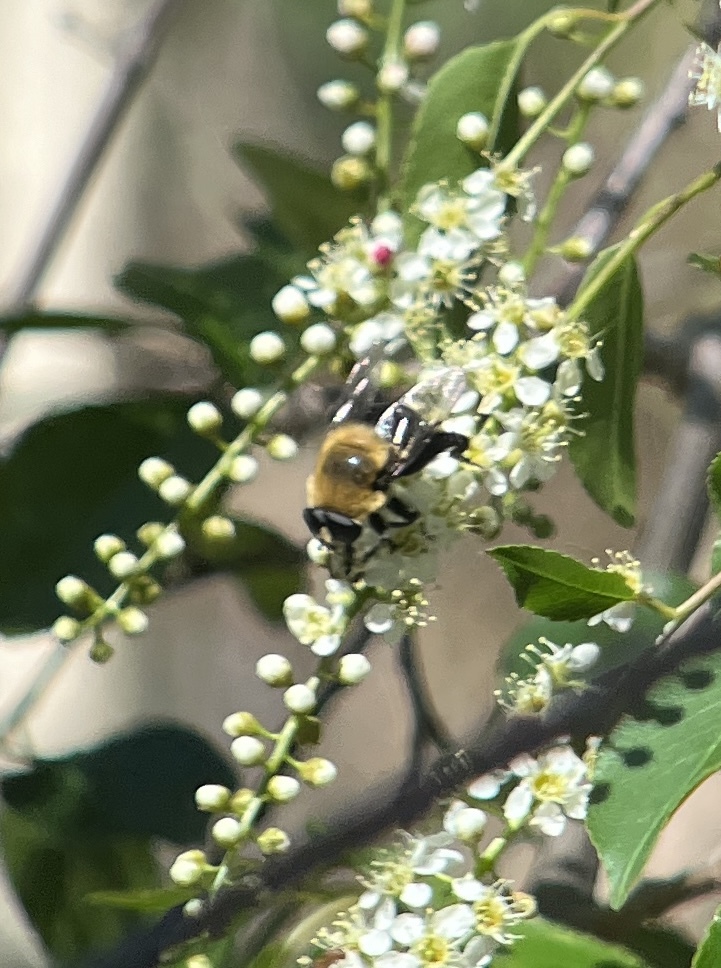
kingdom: Animalia
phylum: Arthropoda
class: Insecta
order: Diptera
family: Syrphidae
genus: Imatisma
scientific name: Imatisma bautias
